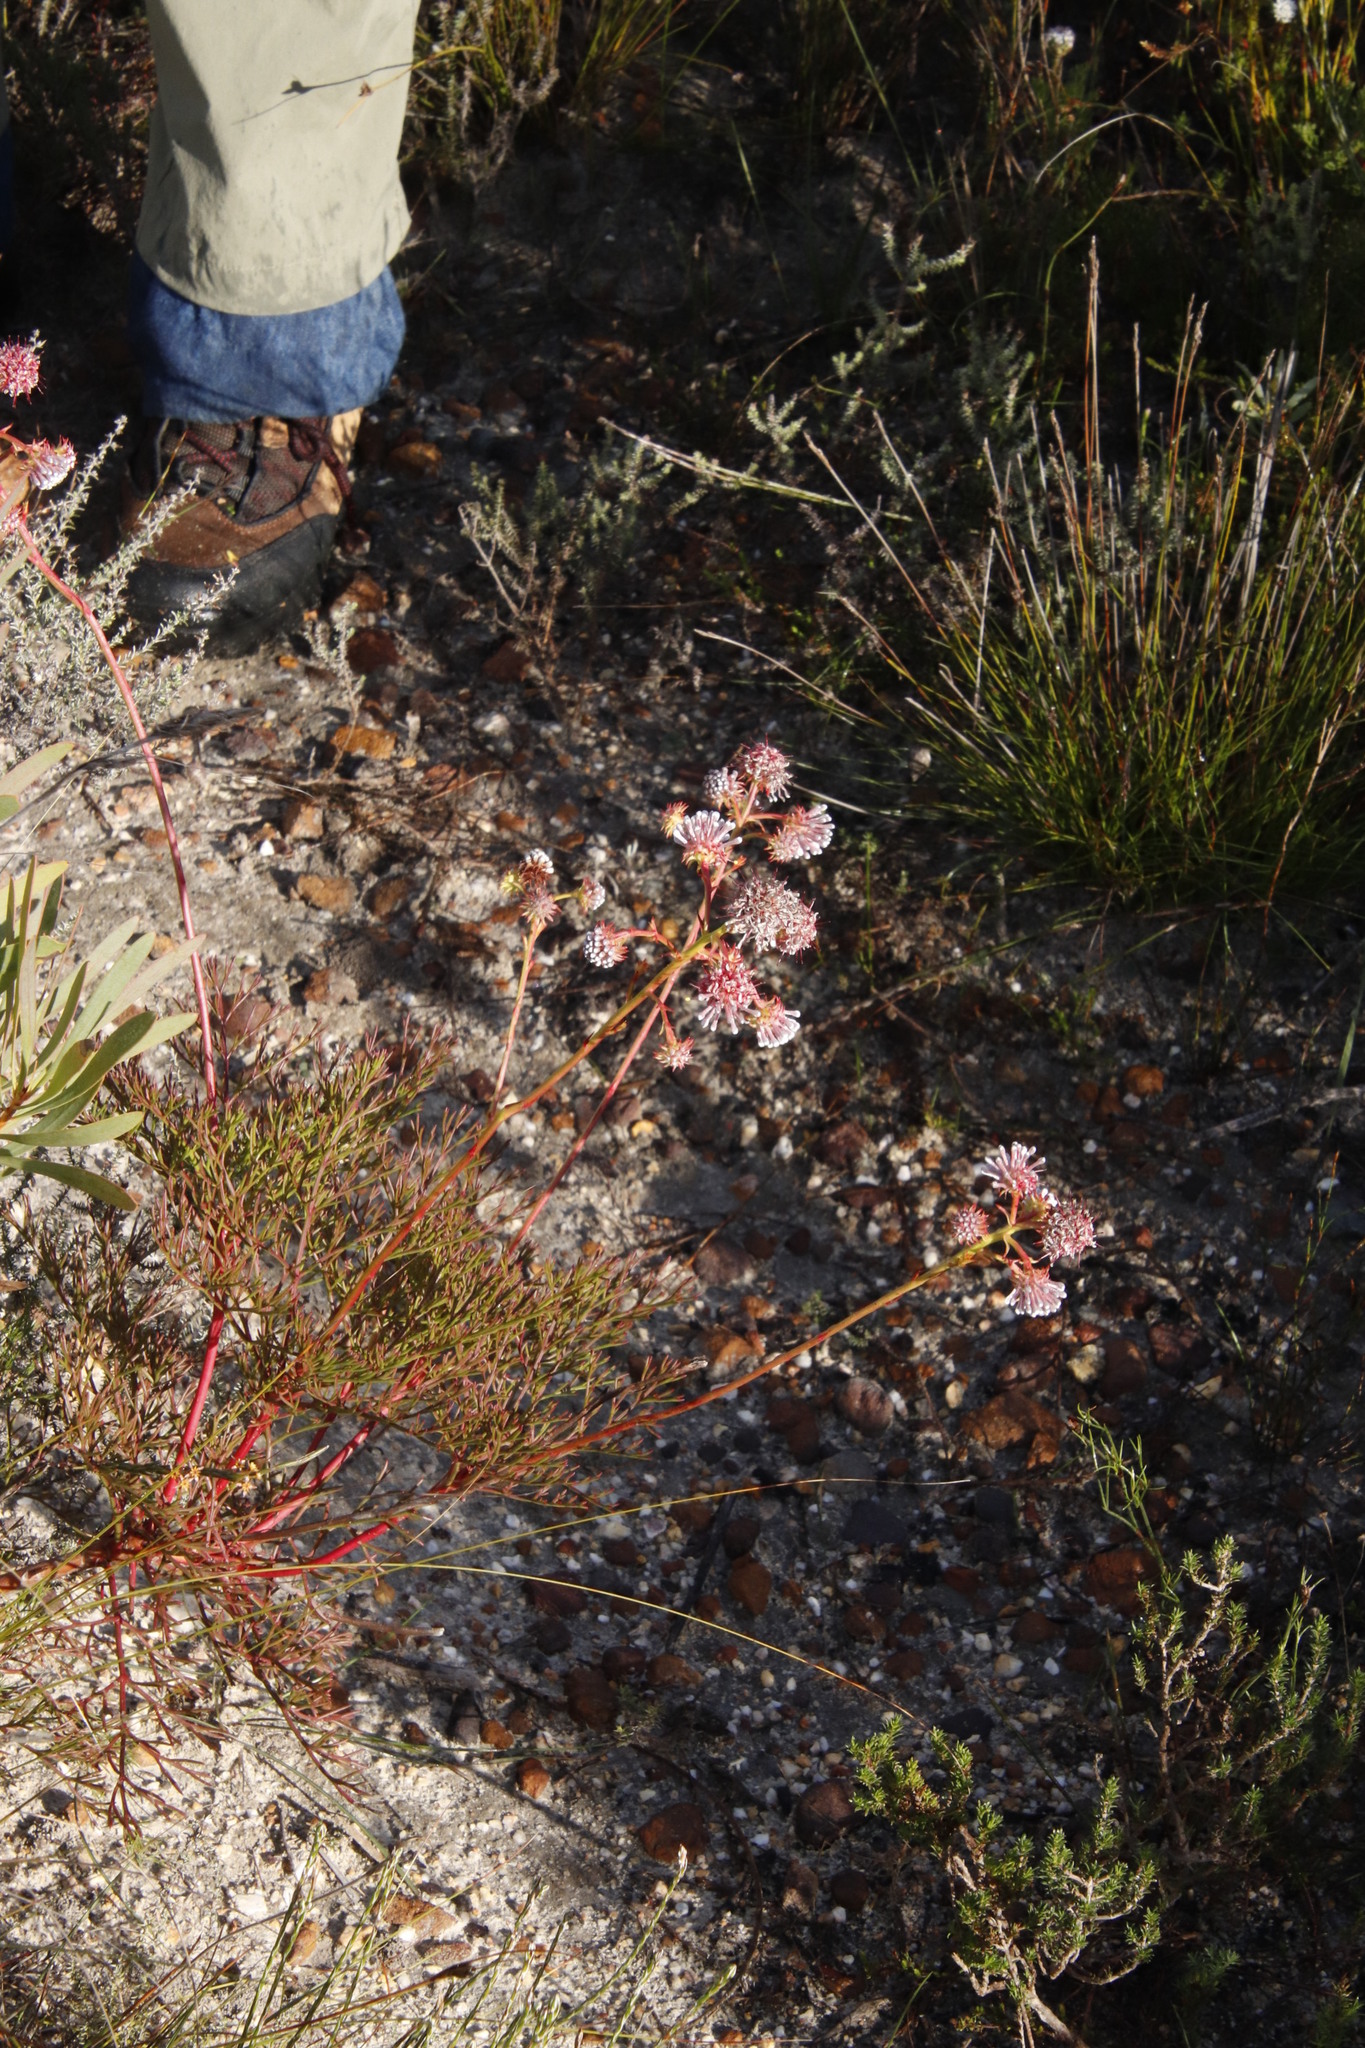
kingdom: Plantae
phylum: Tracheophyta
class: Magnoliopsida
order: Proteales
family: Proteaceae
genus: Serruria
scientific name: Serruria elongata
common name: Long-stalk spiderhead
